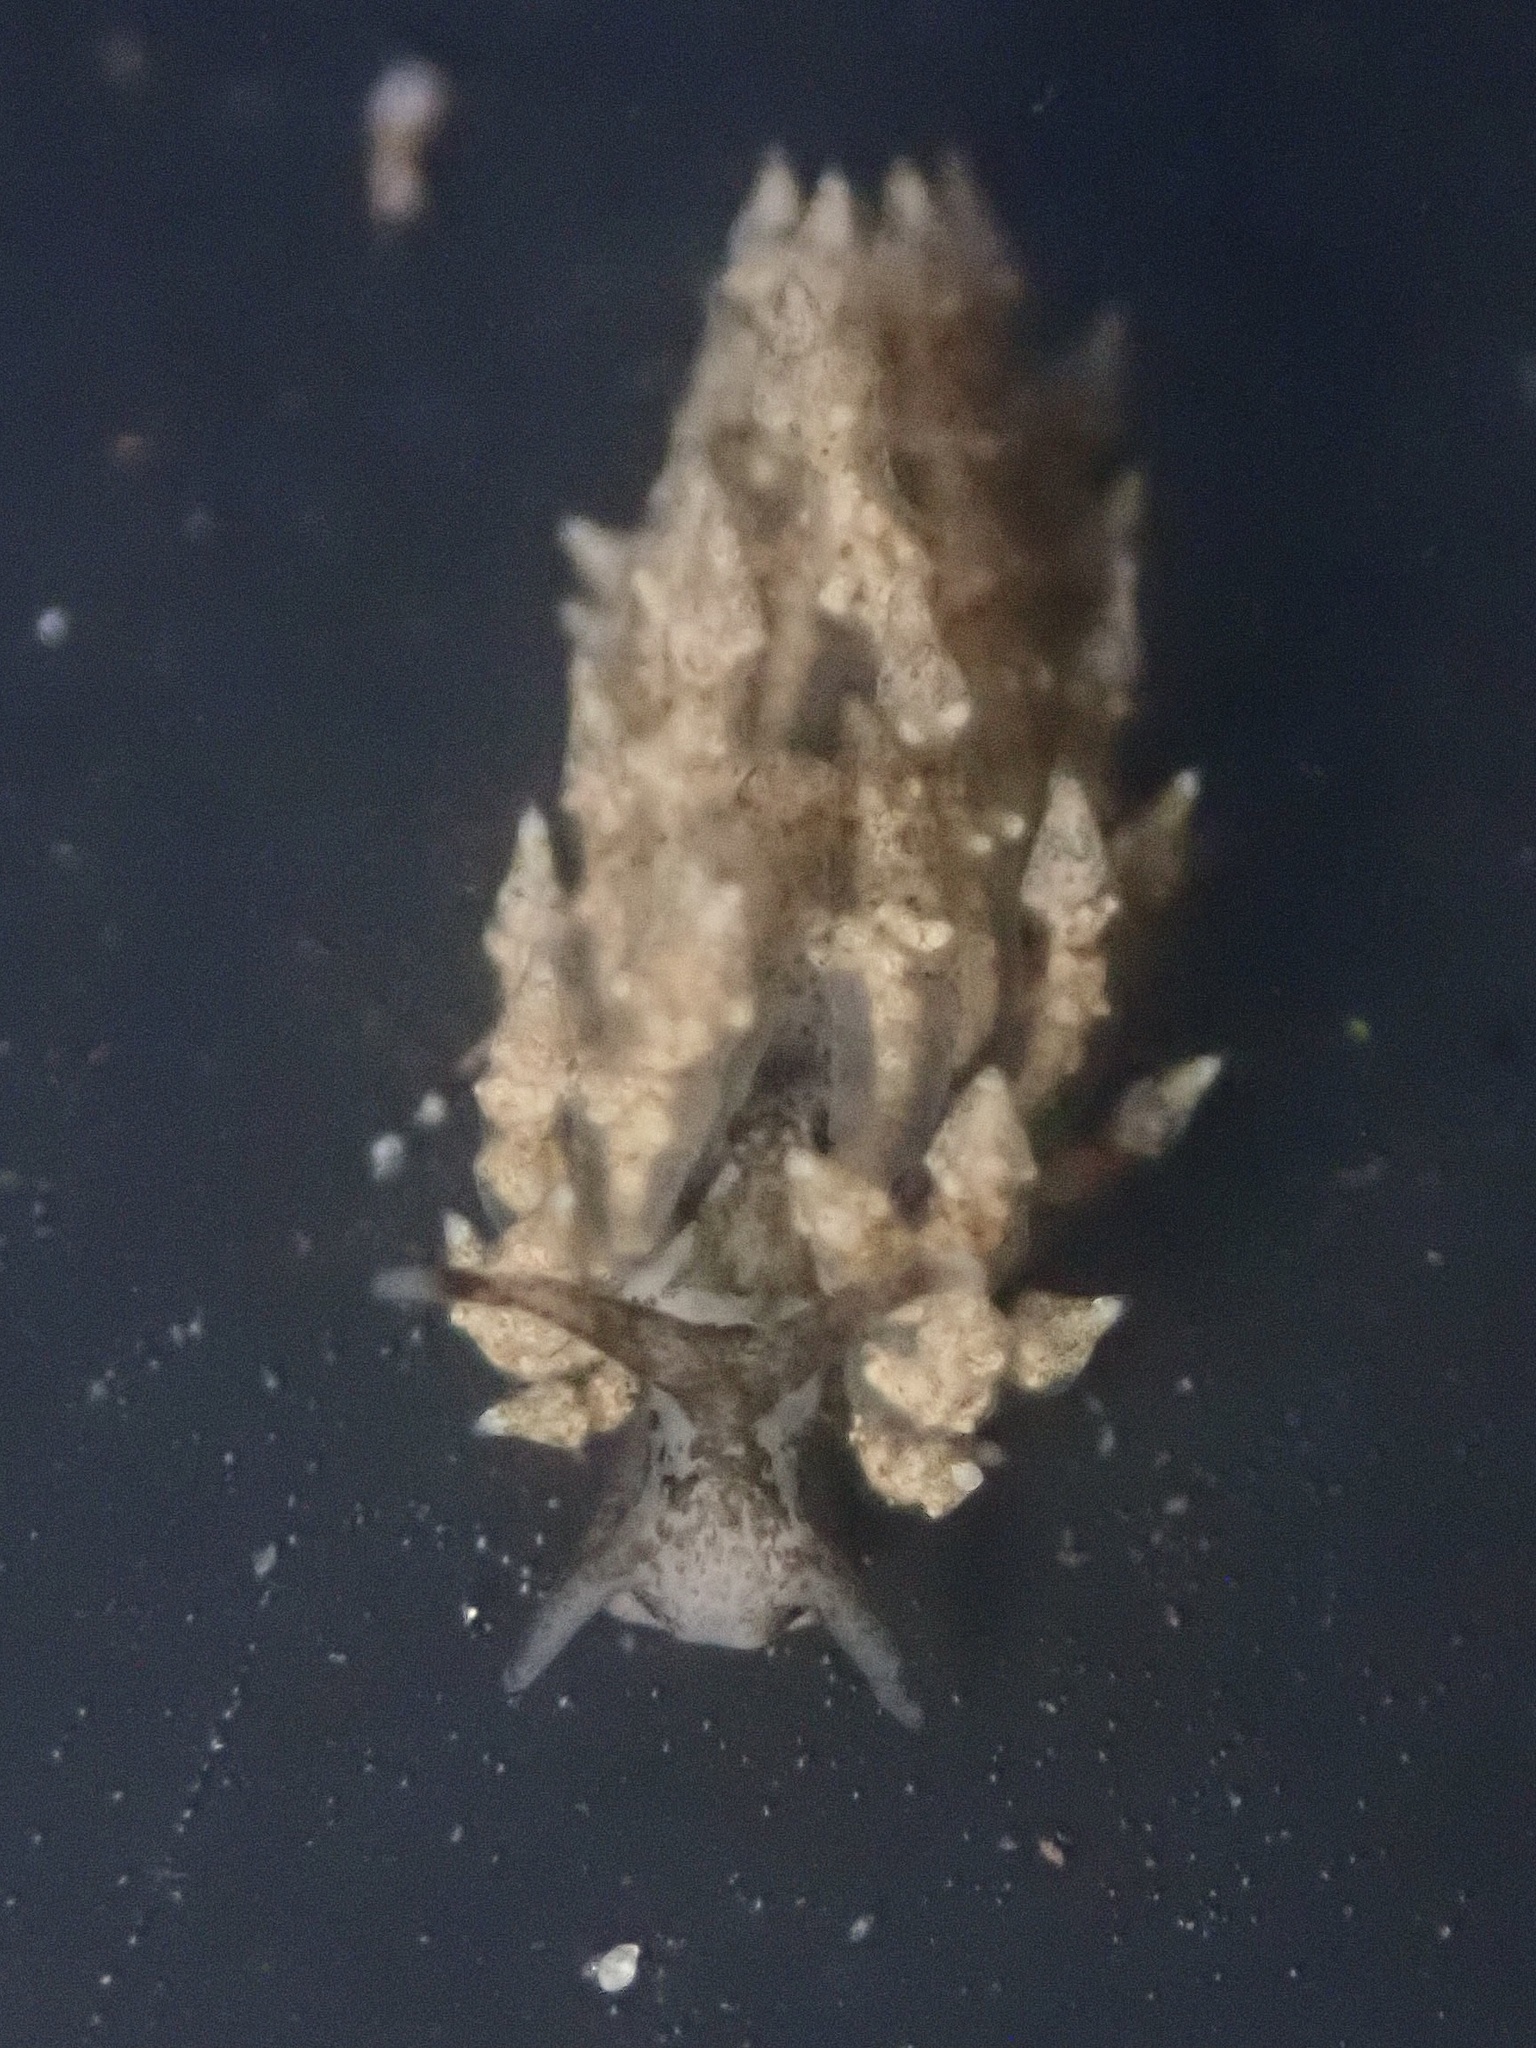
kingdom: Animalia
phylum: Mollusca
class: Gastropoda
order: Nudibranchia
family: Eubranchidae
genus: Eubranchus
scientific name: Eubranchus rustyus
